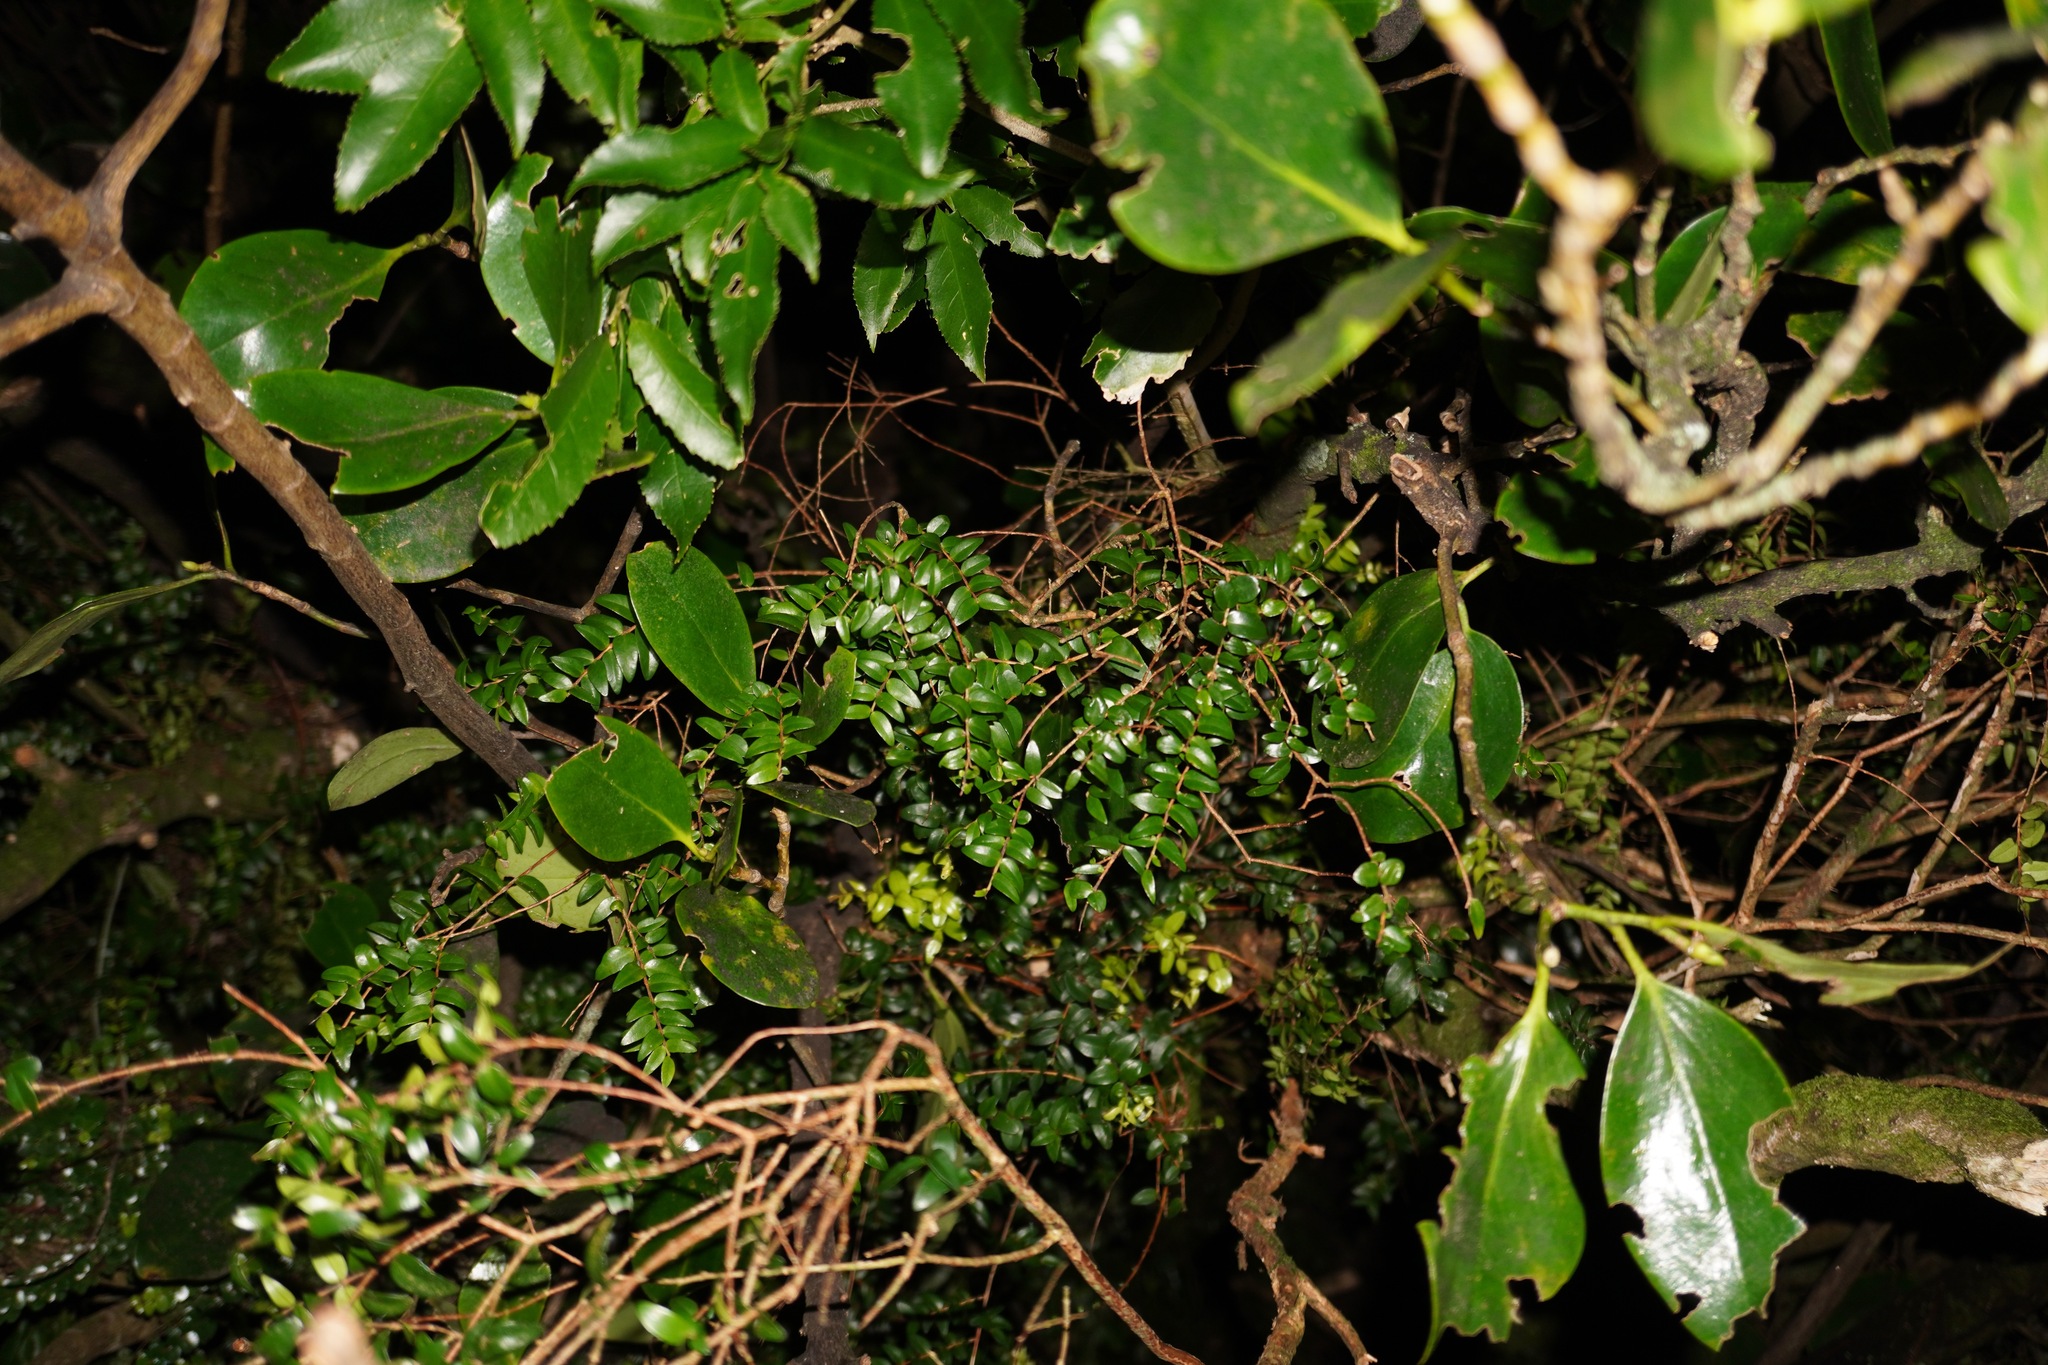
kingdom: Plantae
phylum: Tracheophyta
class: Magnoliopsida
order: Myrtales
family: Myrtaceae
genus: Metrosideros
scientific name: Metrosideros diffusa
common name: Small ratavine
